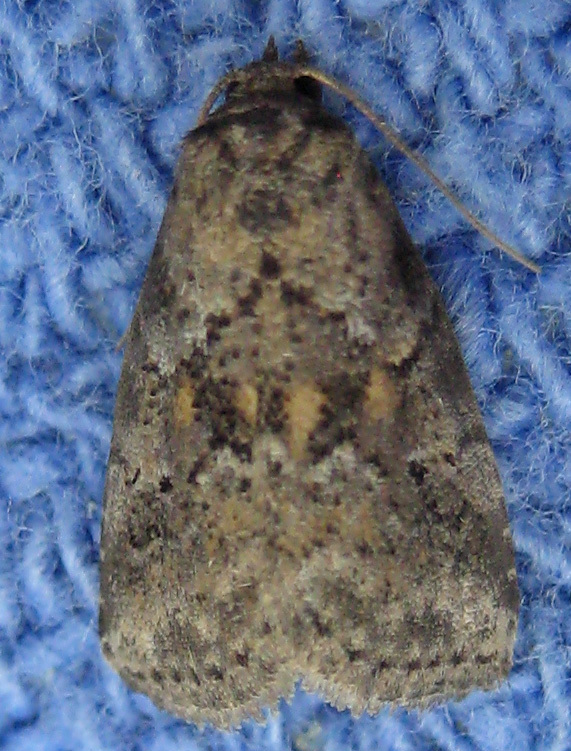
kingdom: Animalia
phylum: Arthropoda
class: Insecta
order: Lepidoptera
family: Erebidae
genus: Hyperstrotia
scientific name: Hyperstrotia nana
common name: White-lined graylet
